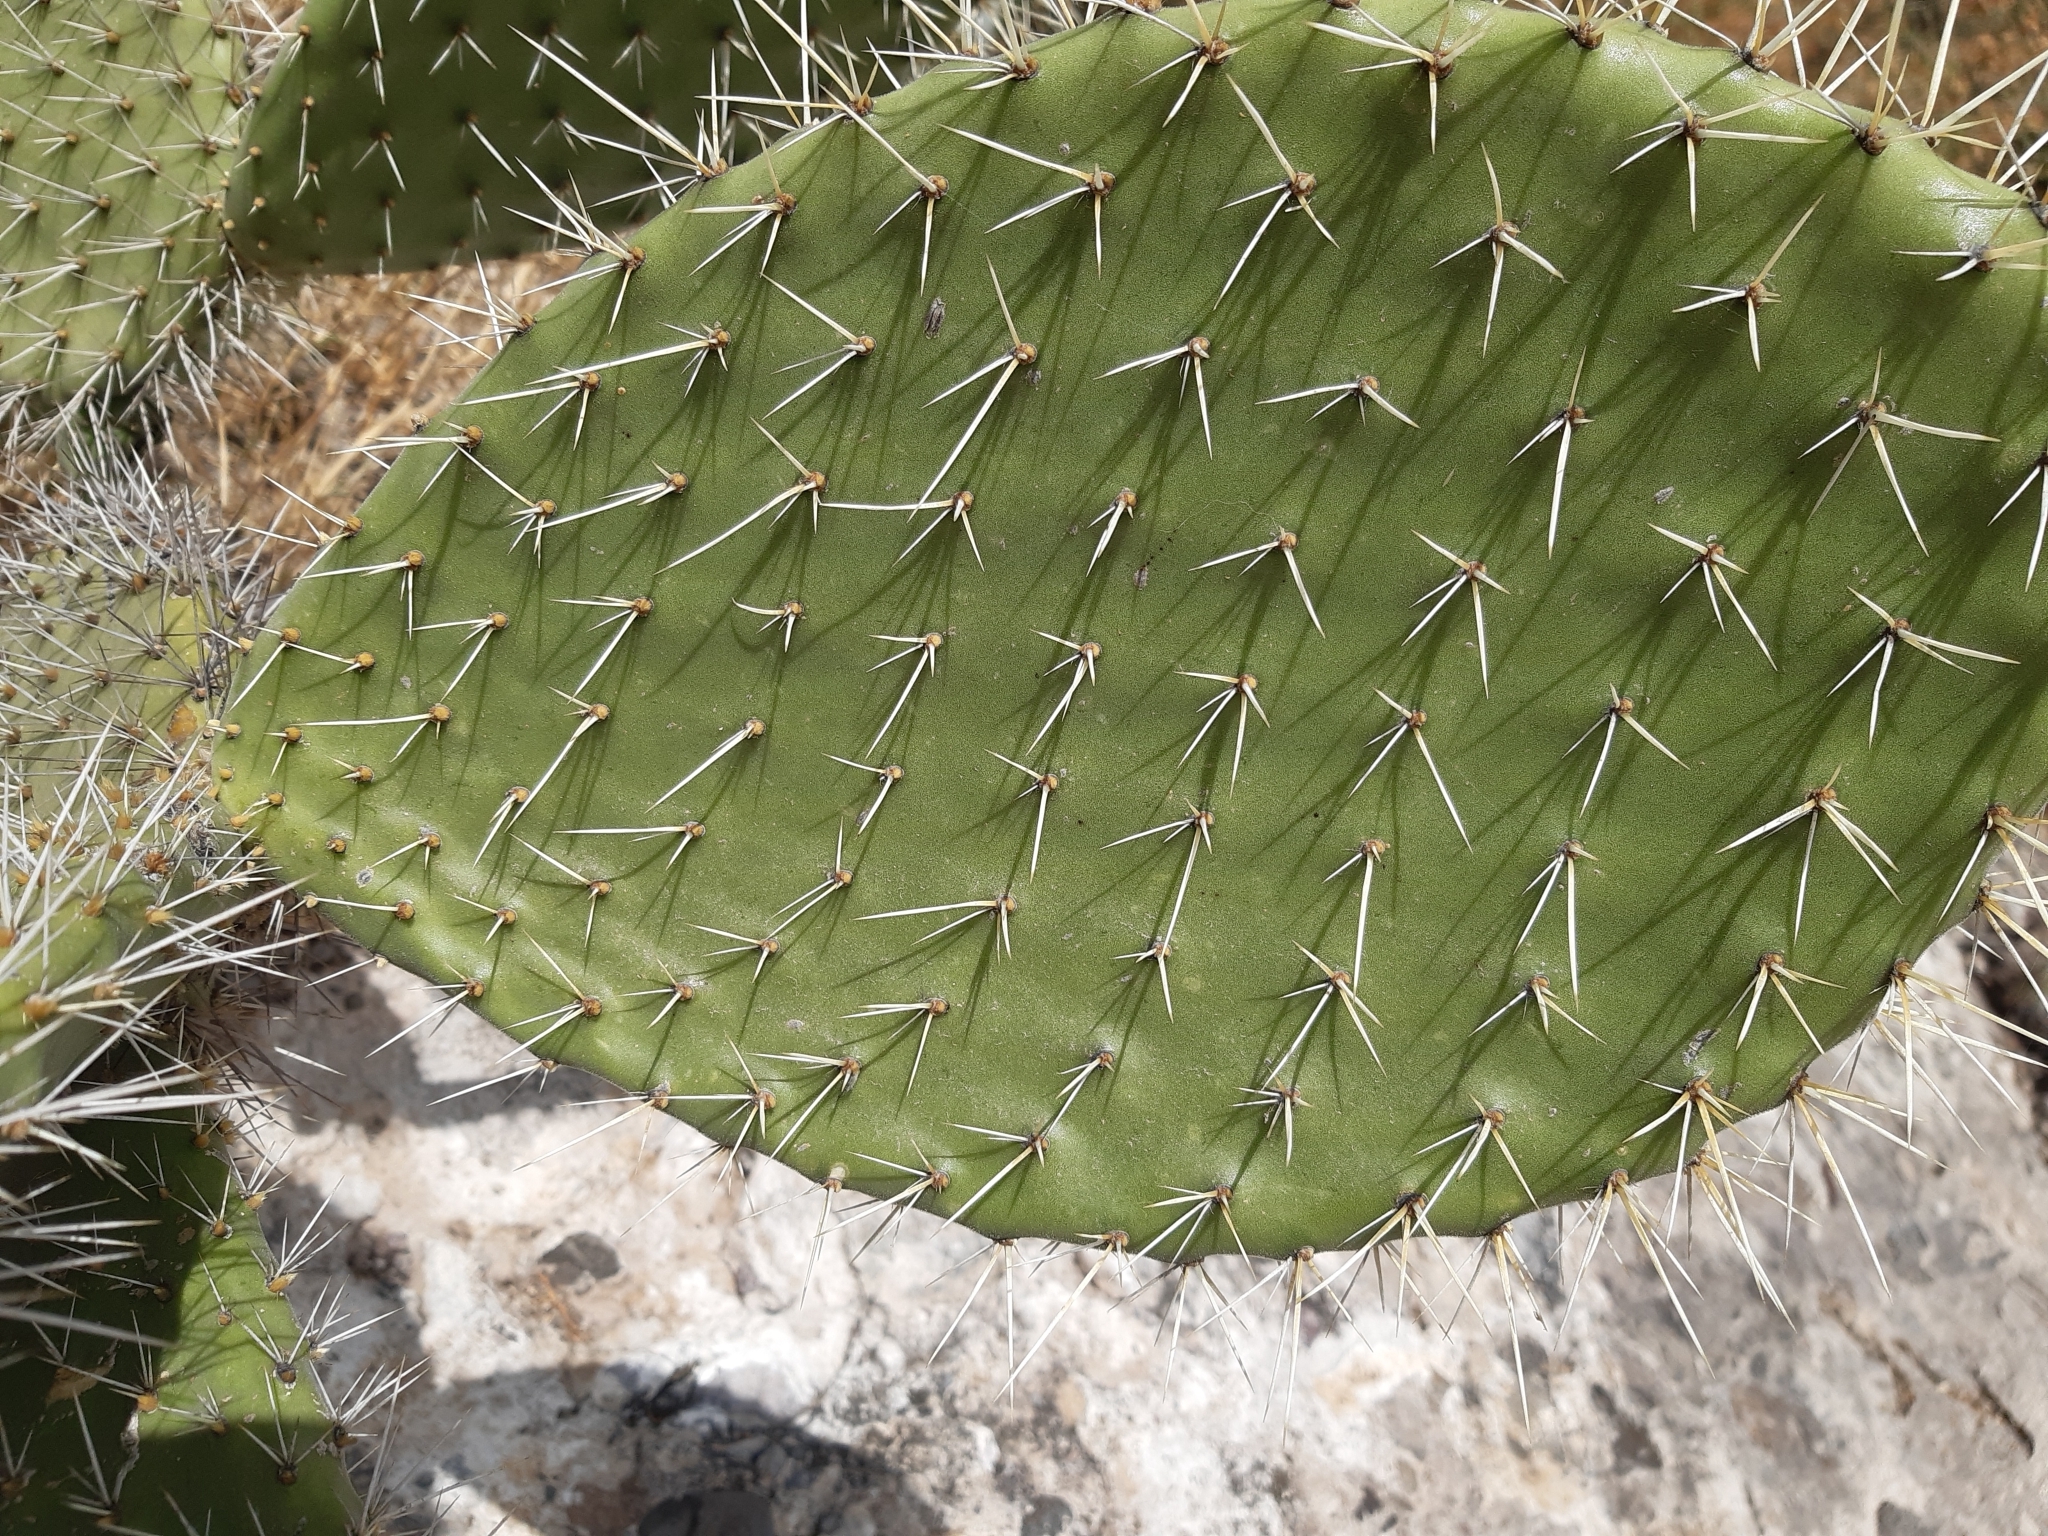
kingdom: Plantae
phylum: Tracheophyta
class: Magnoliopsida
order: Caryophyllales
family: Cactaceae
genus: Opuntia
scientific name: Opuntia lasiacantha
